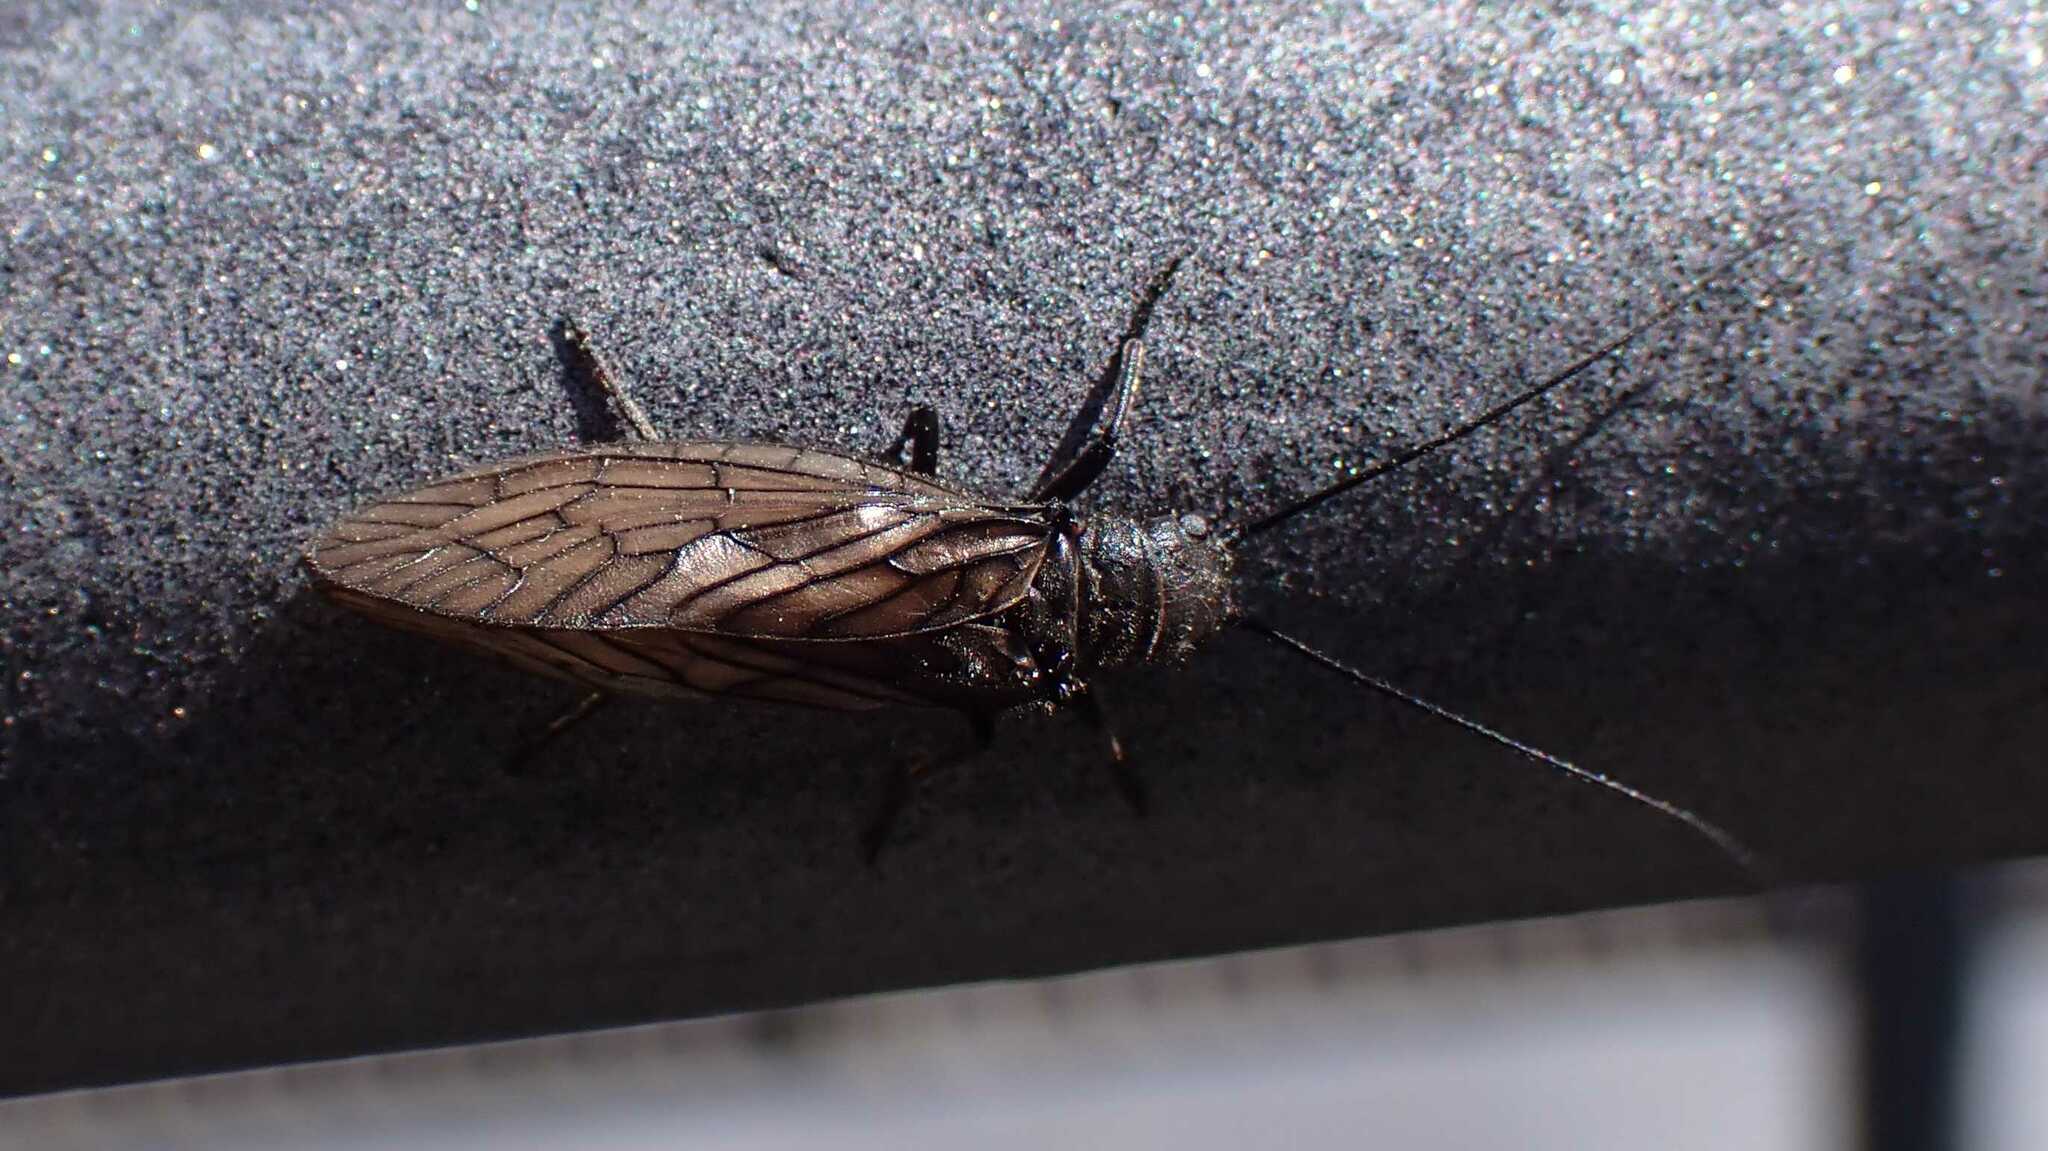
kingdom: Animalia
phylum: Arthropoda
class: Insecta
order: Megaloptera
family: Sialidae
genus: Sialis
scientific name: Sialis
